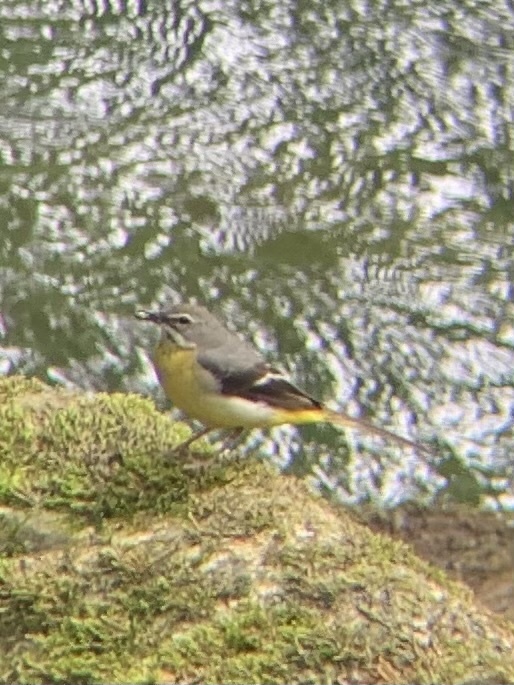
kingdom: Animalia
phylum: Chordata
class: Aves
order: Passeriformes
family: Motacillidae
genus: Motacilla
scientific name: Motacilla cinerea
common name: Grey wagtail
